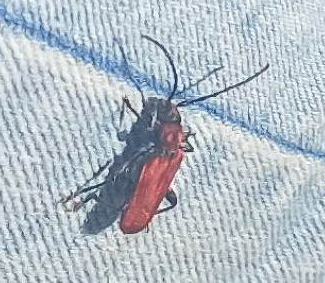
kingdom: Animalia
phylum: Arthropoda
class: Insecta
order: Coleoptera
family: Cerambycidae
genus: Pyrrhidium
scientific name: Pyrrhidium sanguineum
